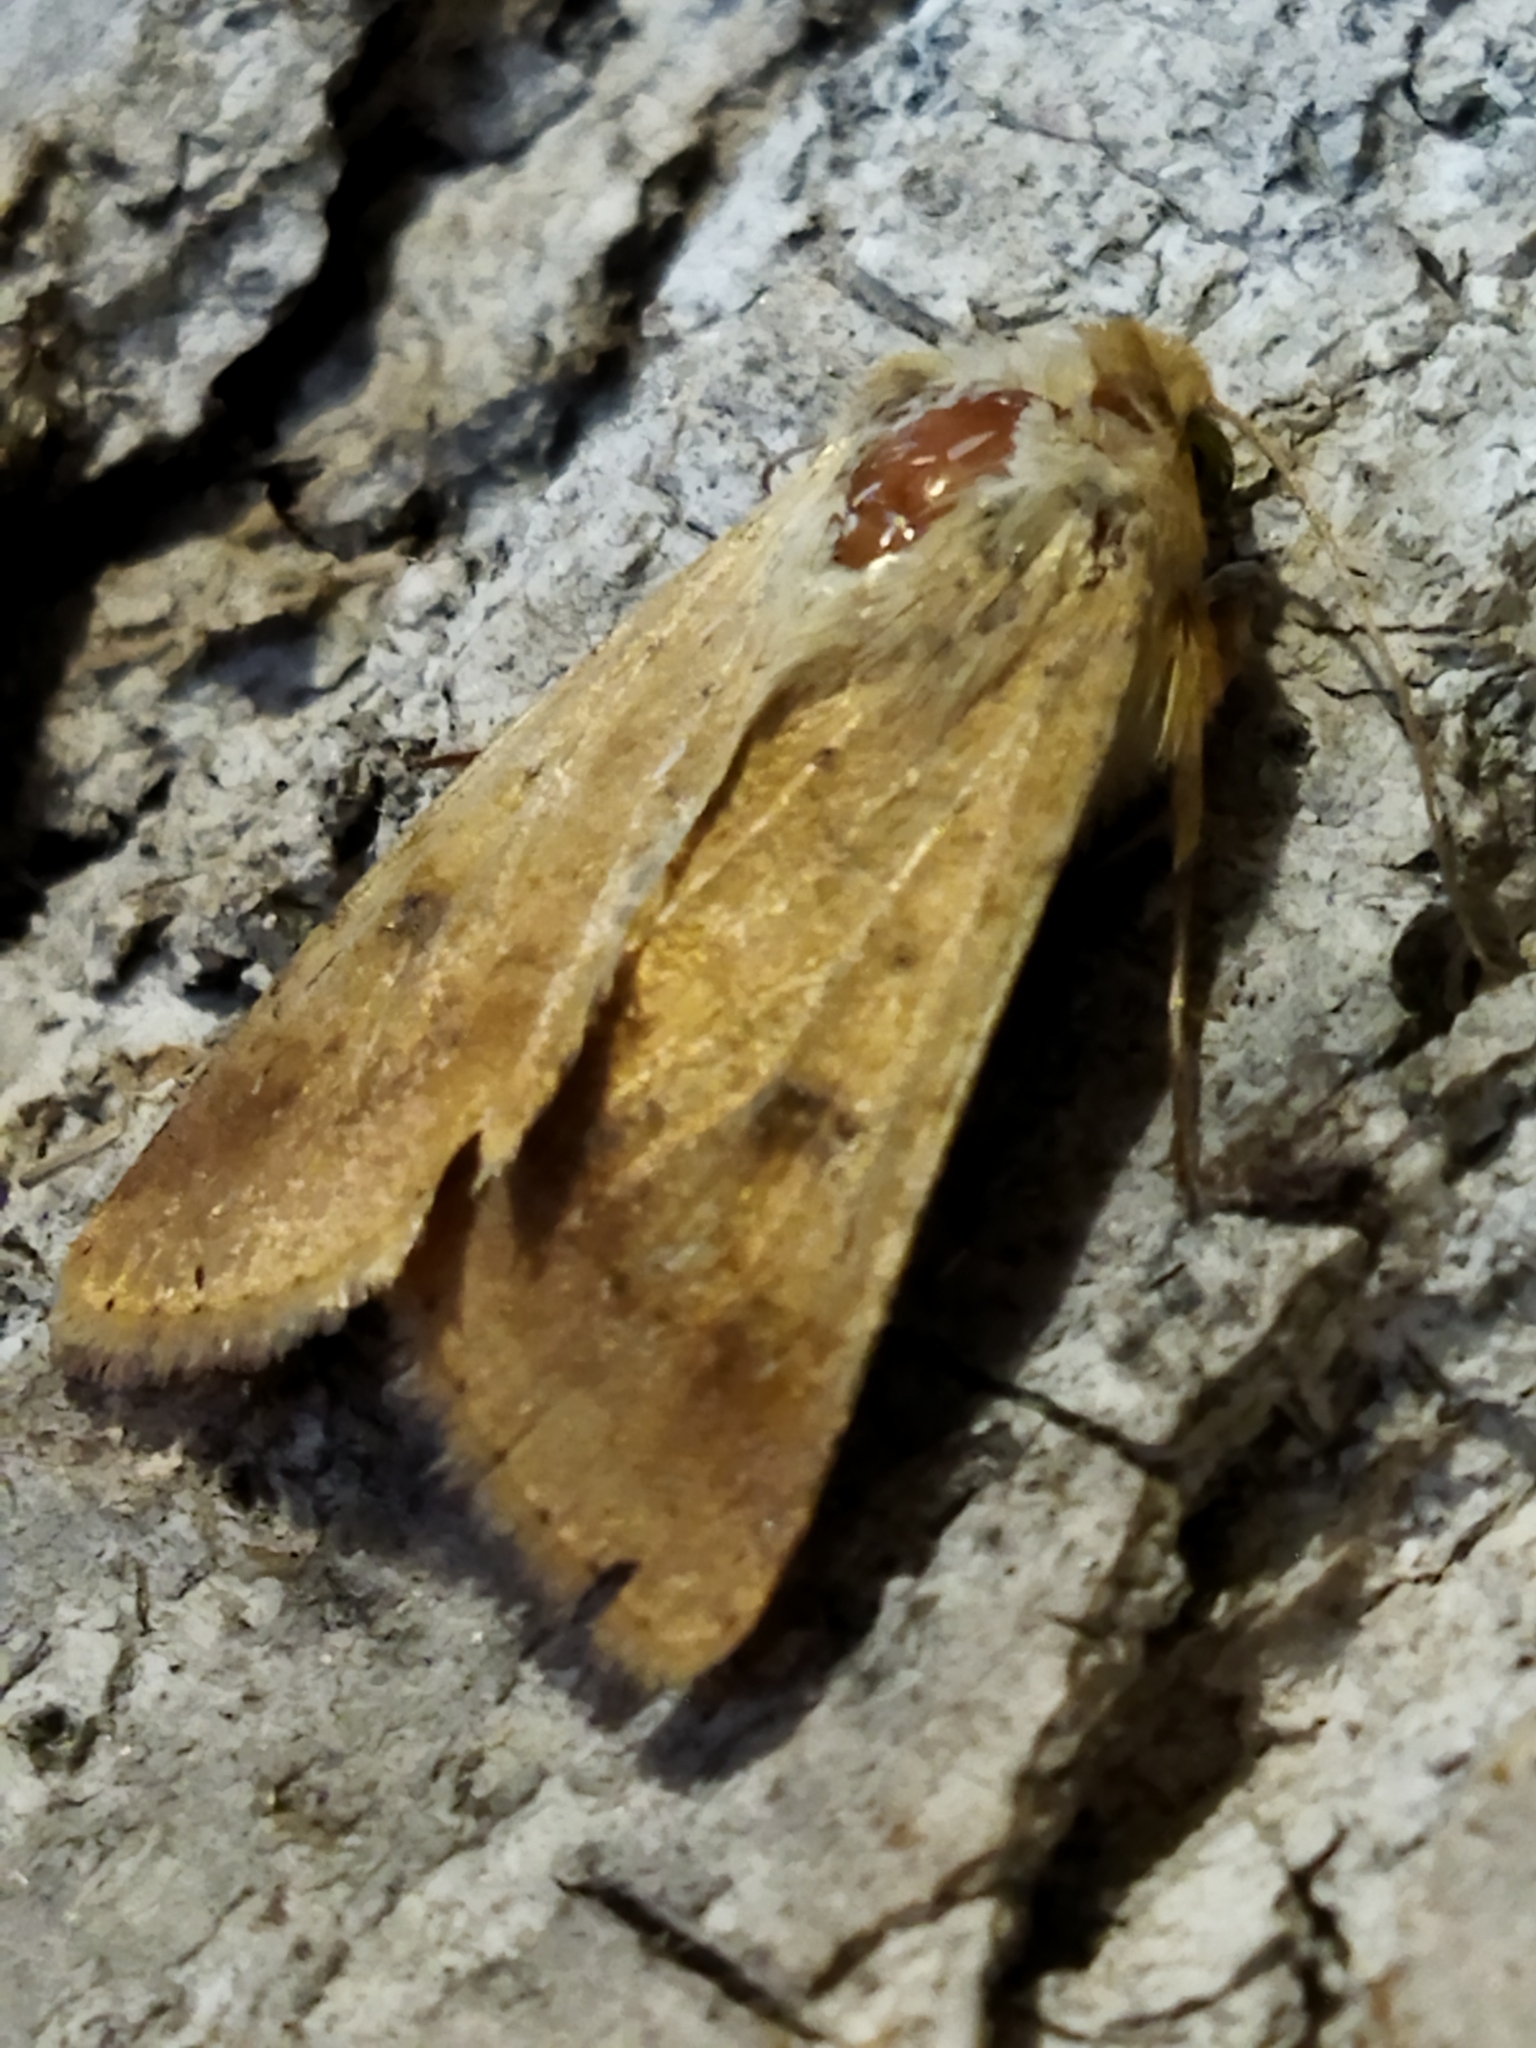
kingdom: Animalia
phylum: Arthropoda
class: Insecta
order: Lepidoptera
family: Noctuidae
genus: Helicoverpa
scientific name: Helicoverpa armigera
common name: Cotton bollworm
